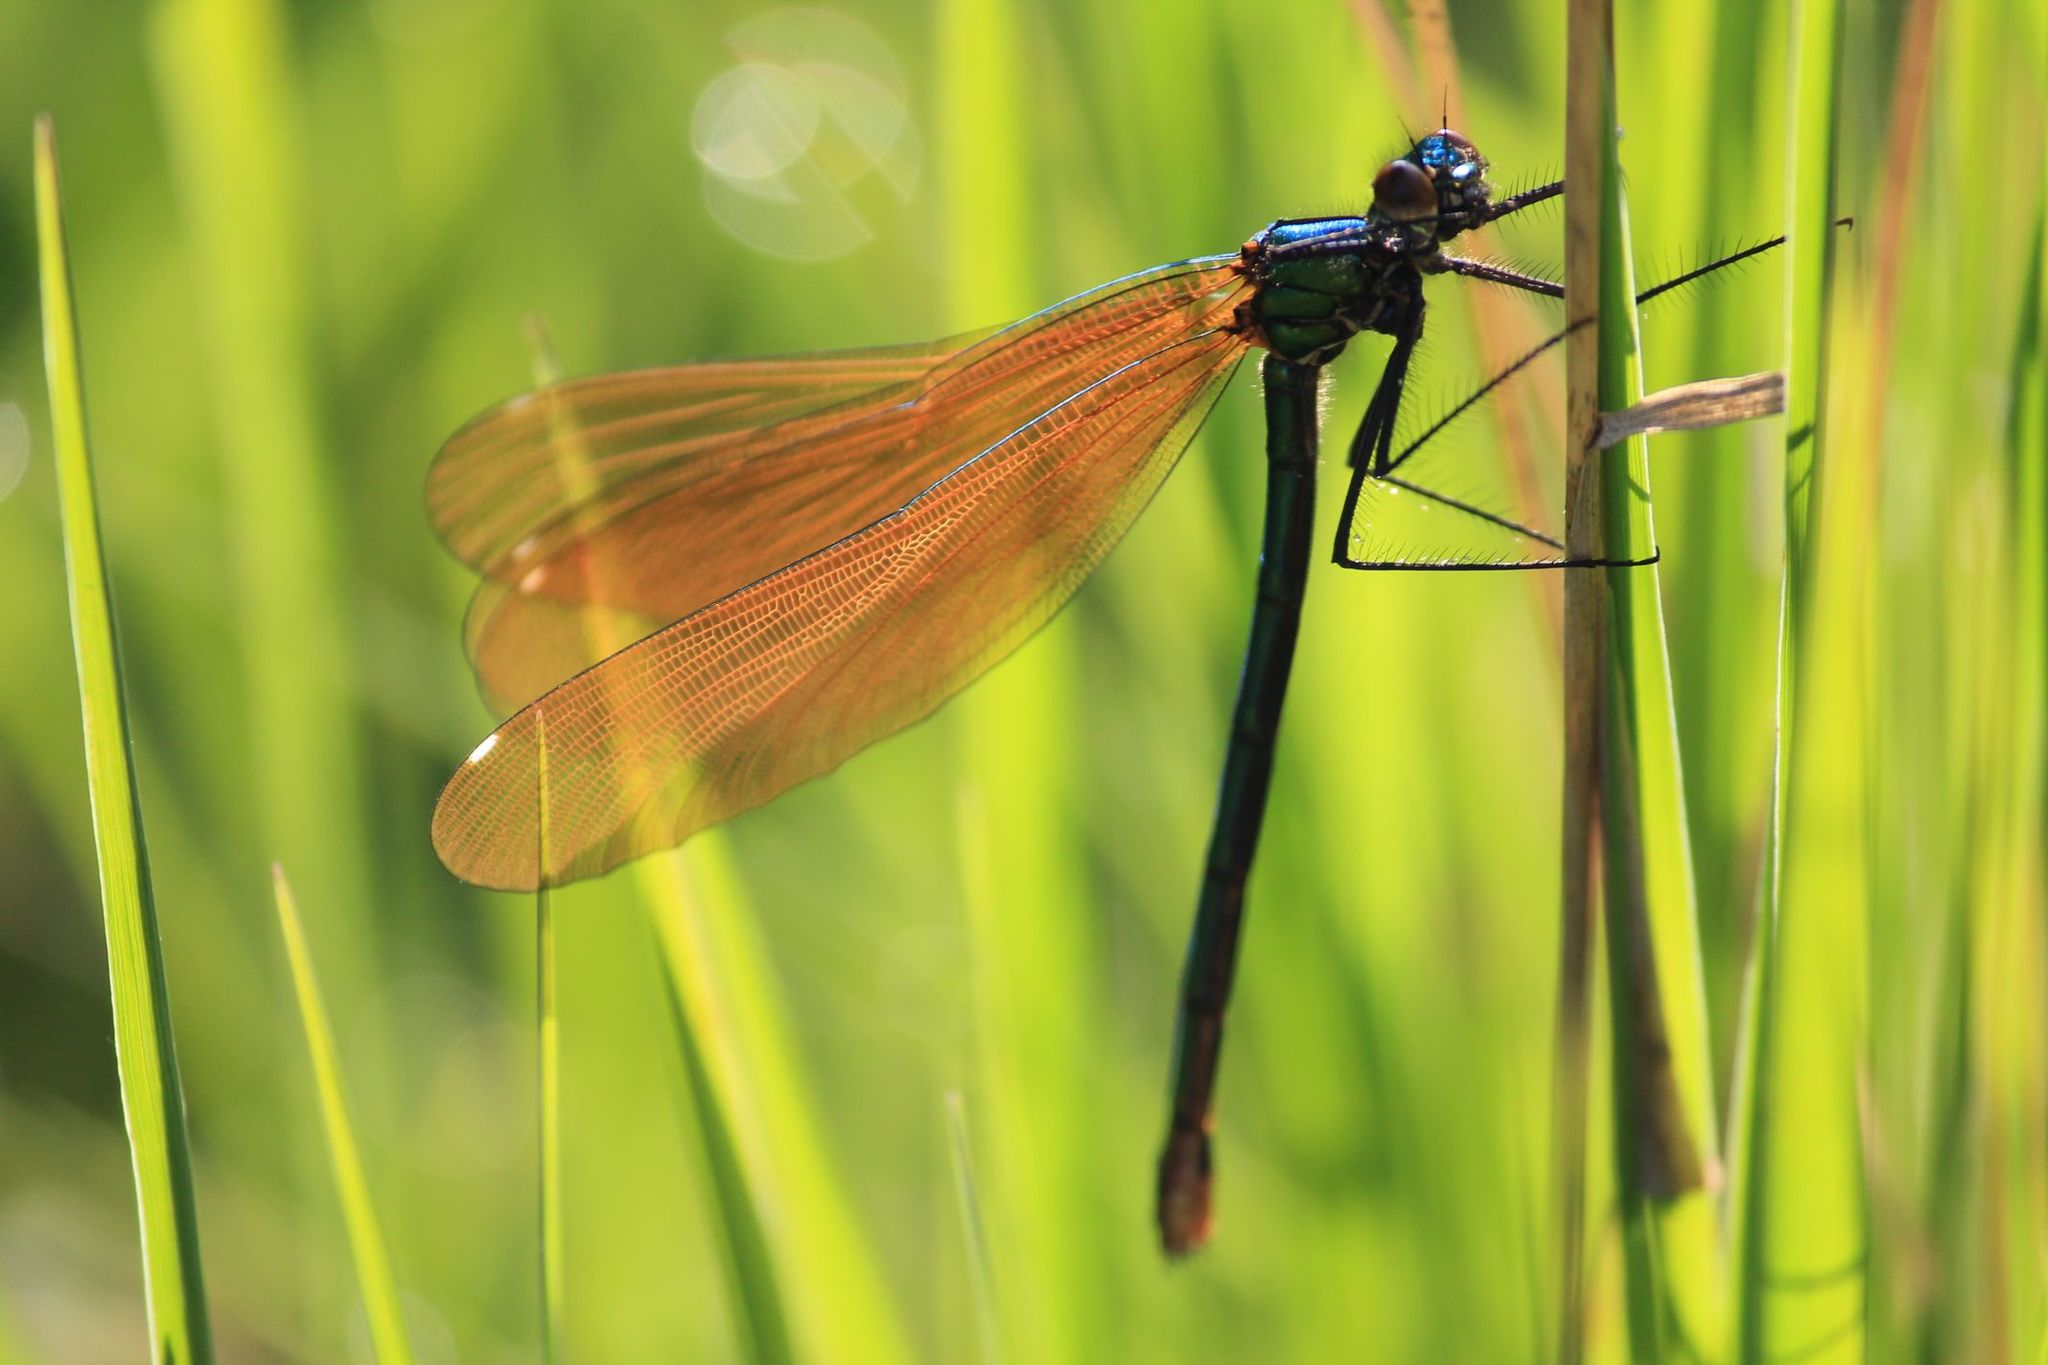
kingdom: Animalia
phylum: Arthropoda
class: Insecta
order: Odonata
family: Calopterygidae
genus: Calopteryx
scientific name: Calopteryx virgo
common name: Beautiful demoiselle
